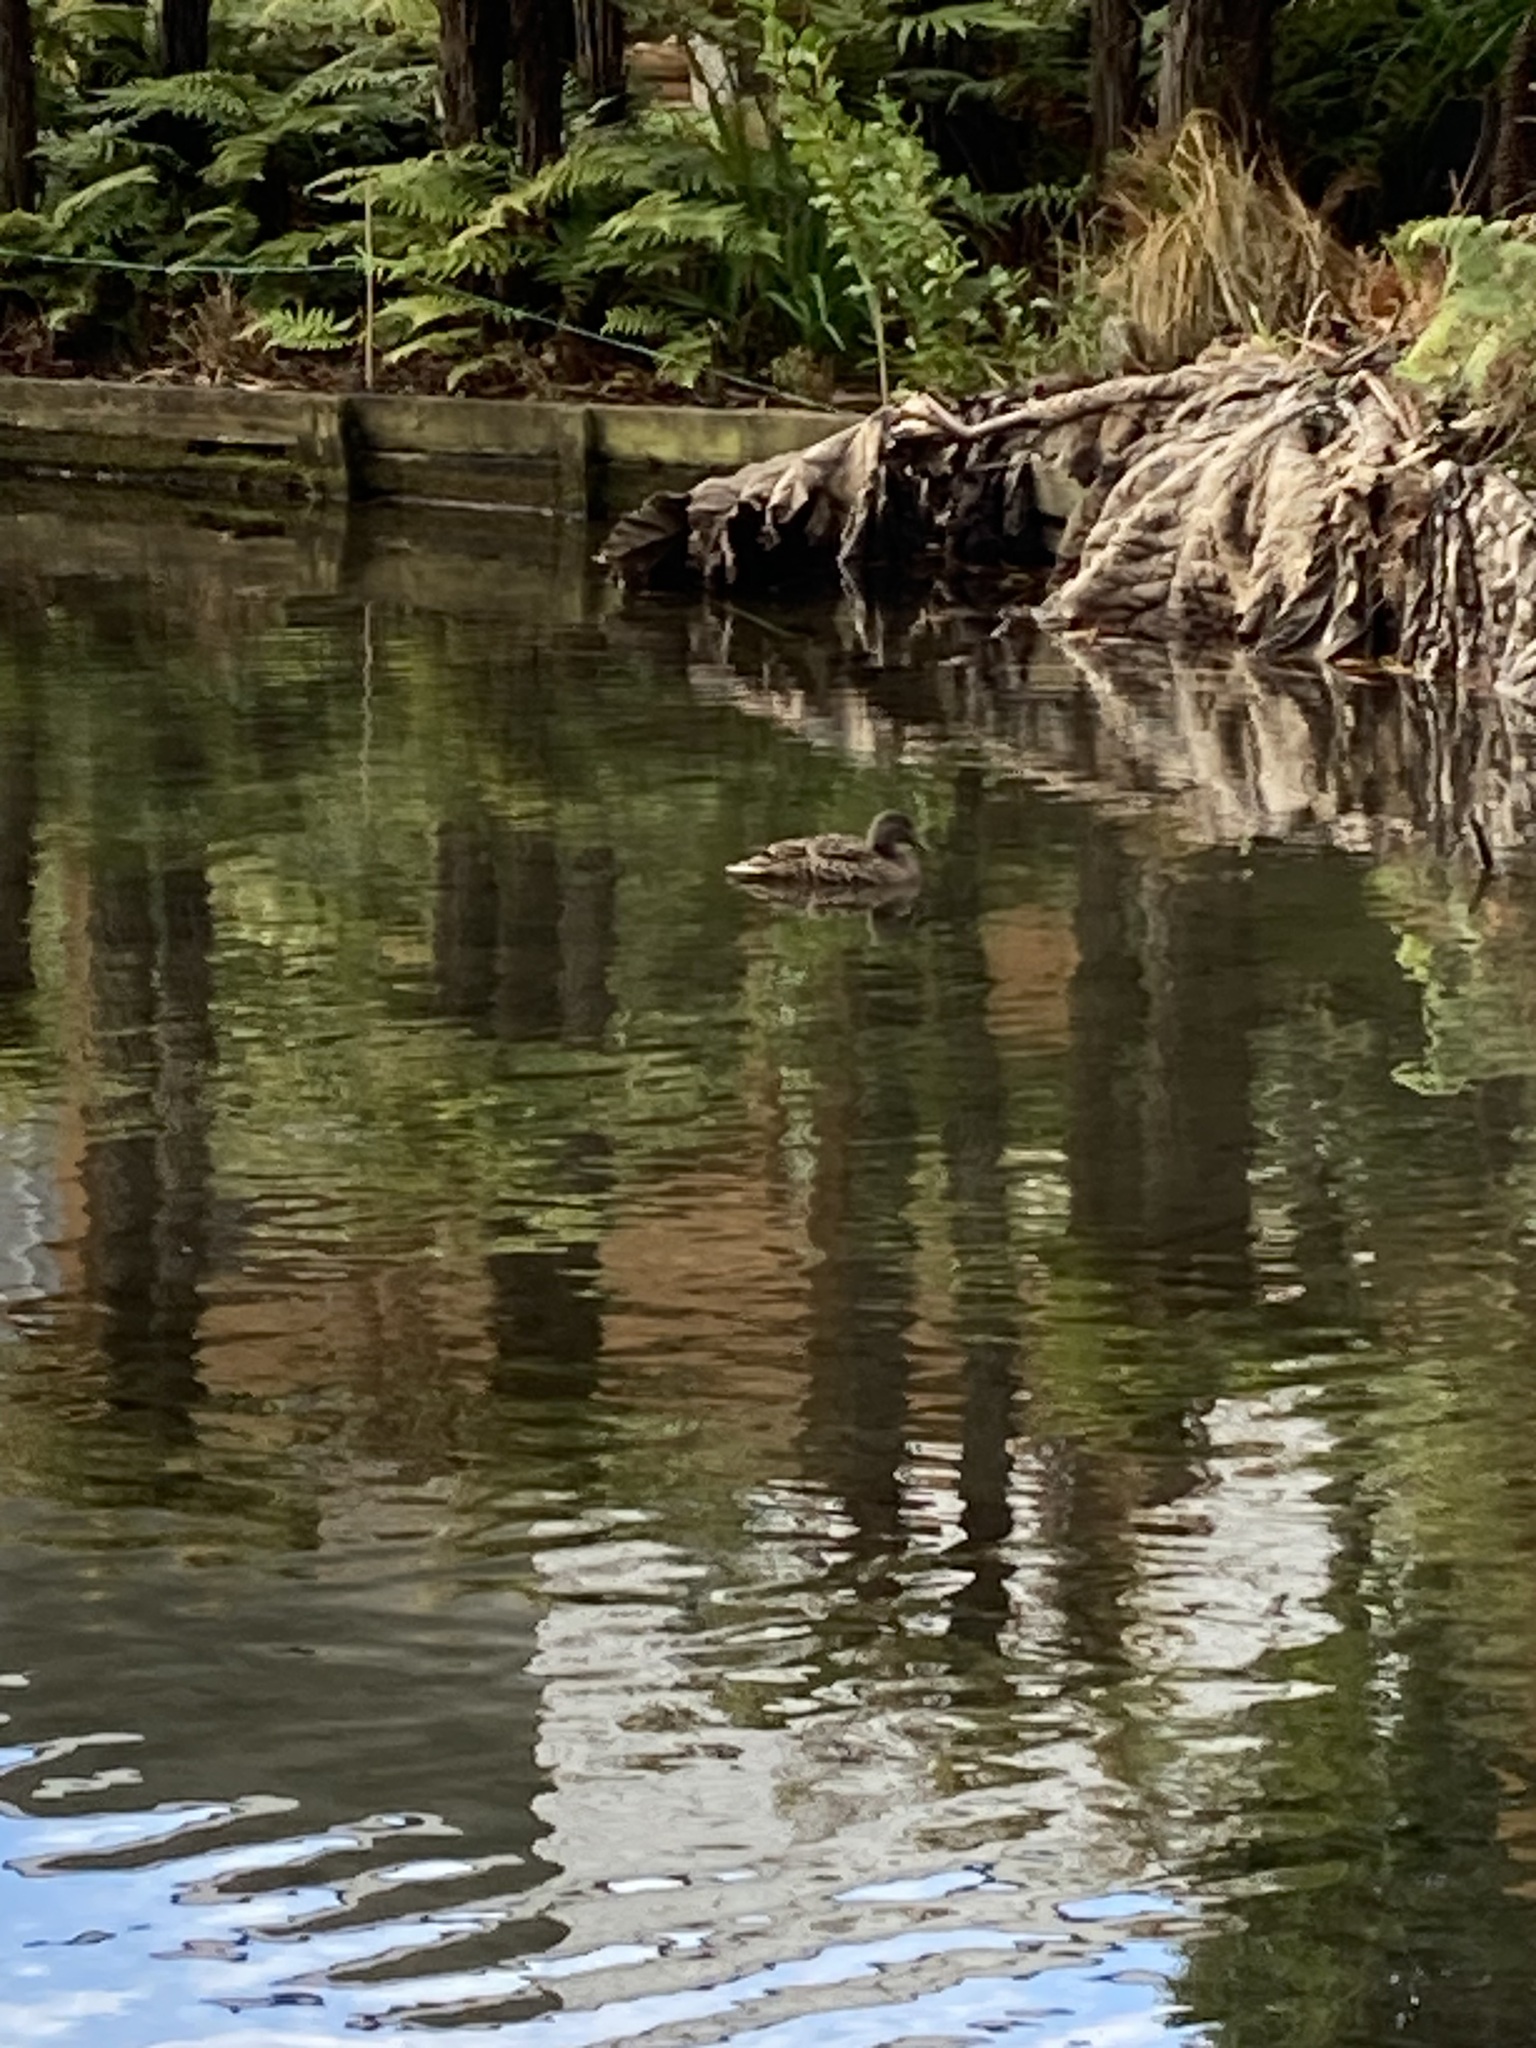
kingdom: Animalia
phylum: Chordata
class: Aves
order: Anseriformes
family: Anatidae
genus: Anas
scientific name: Anas platyrhynchos
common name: Mallard
